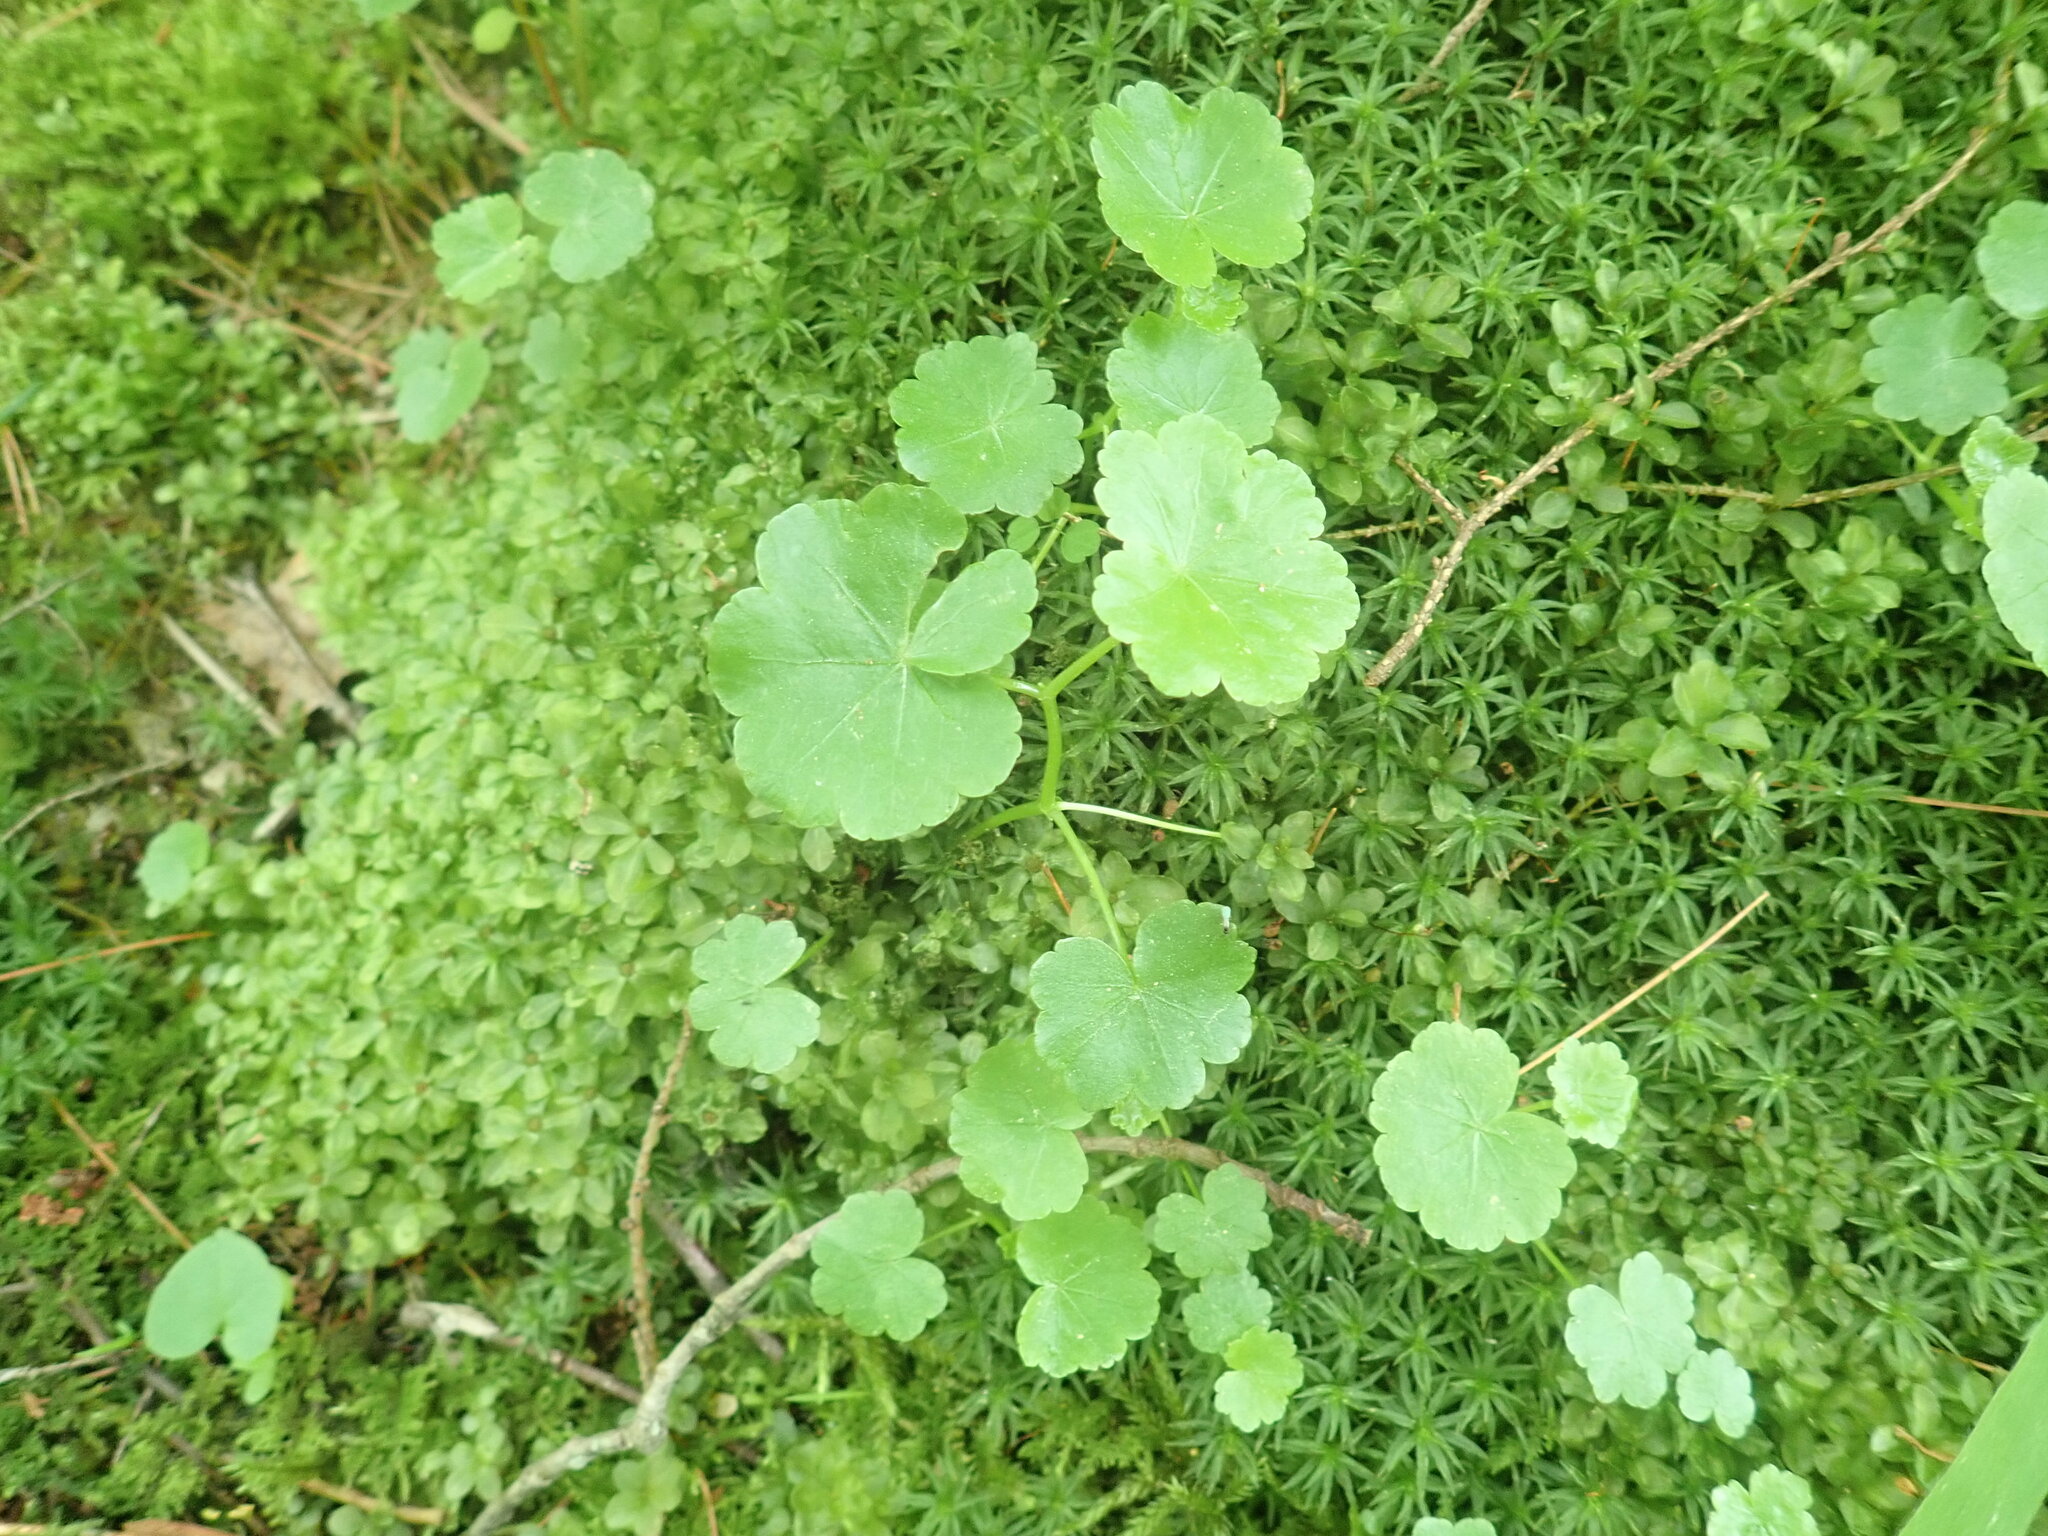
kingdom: Plantae
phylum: Tracheophyta
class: Magnoliopsida
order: Apiales
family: Araliaceae
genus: Hydrocotyle
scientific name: Hydrocotyle americana
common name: American water-pennywort
